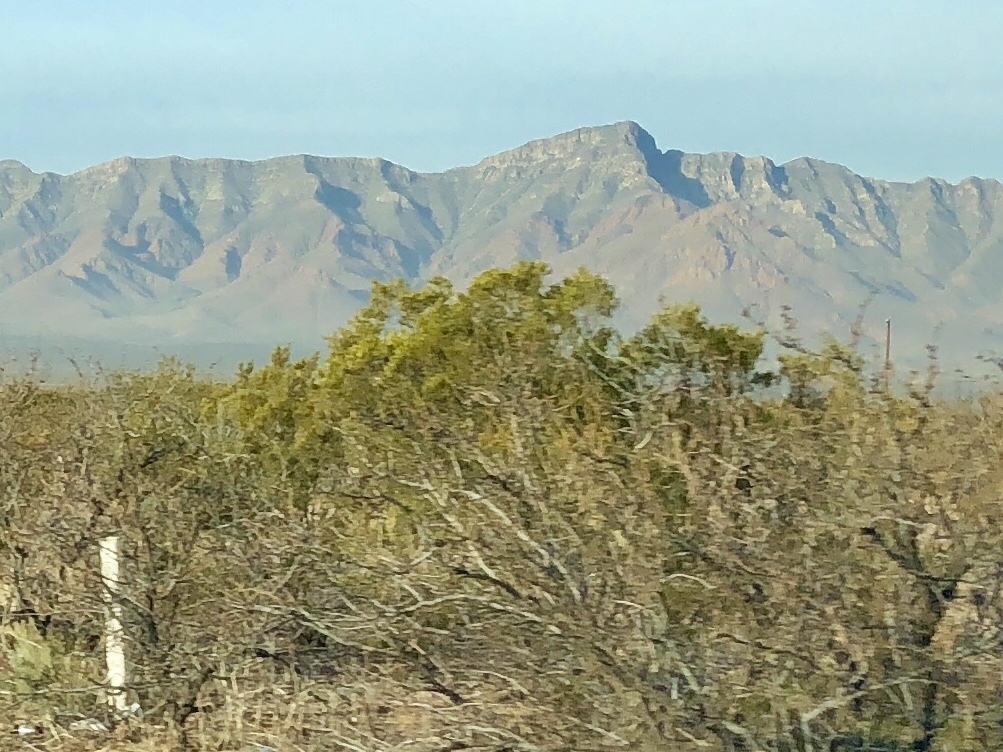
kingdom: Plantae
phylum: Tracheophyta
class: Magnoliopsida
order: Zygophyllales
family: Zygophyllaceae
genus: Larrea
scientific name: Larrea tridentata
